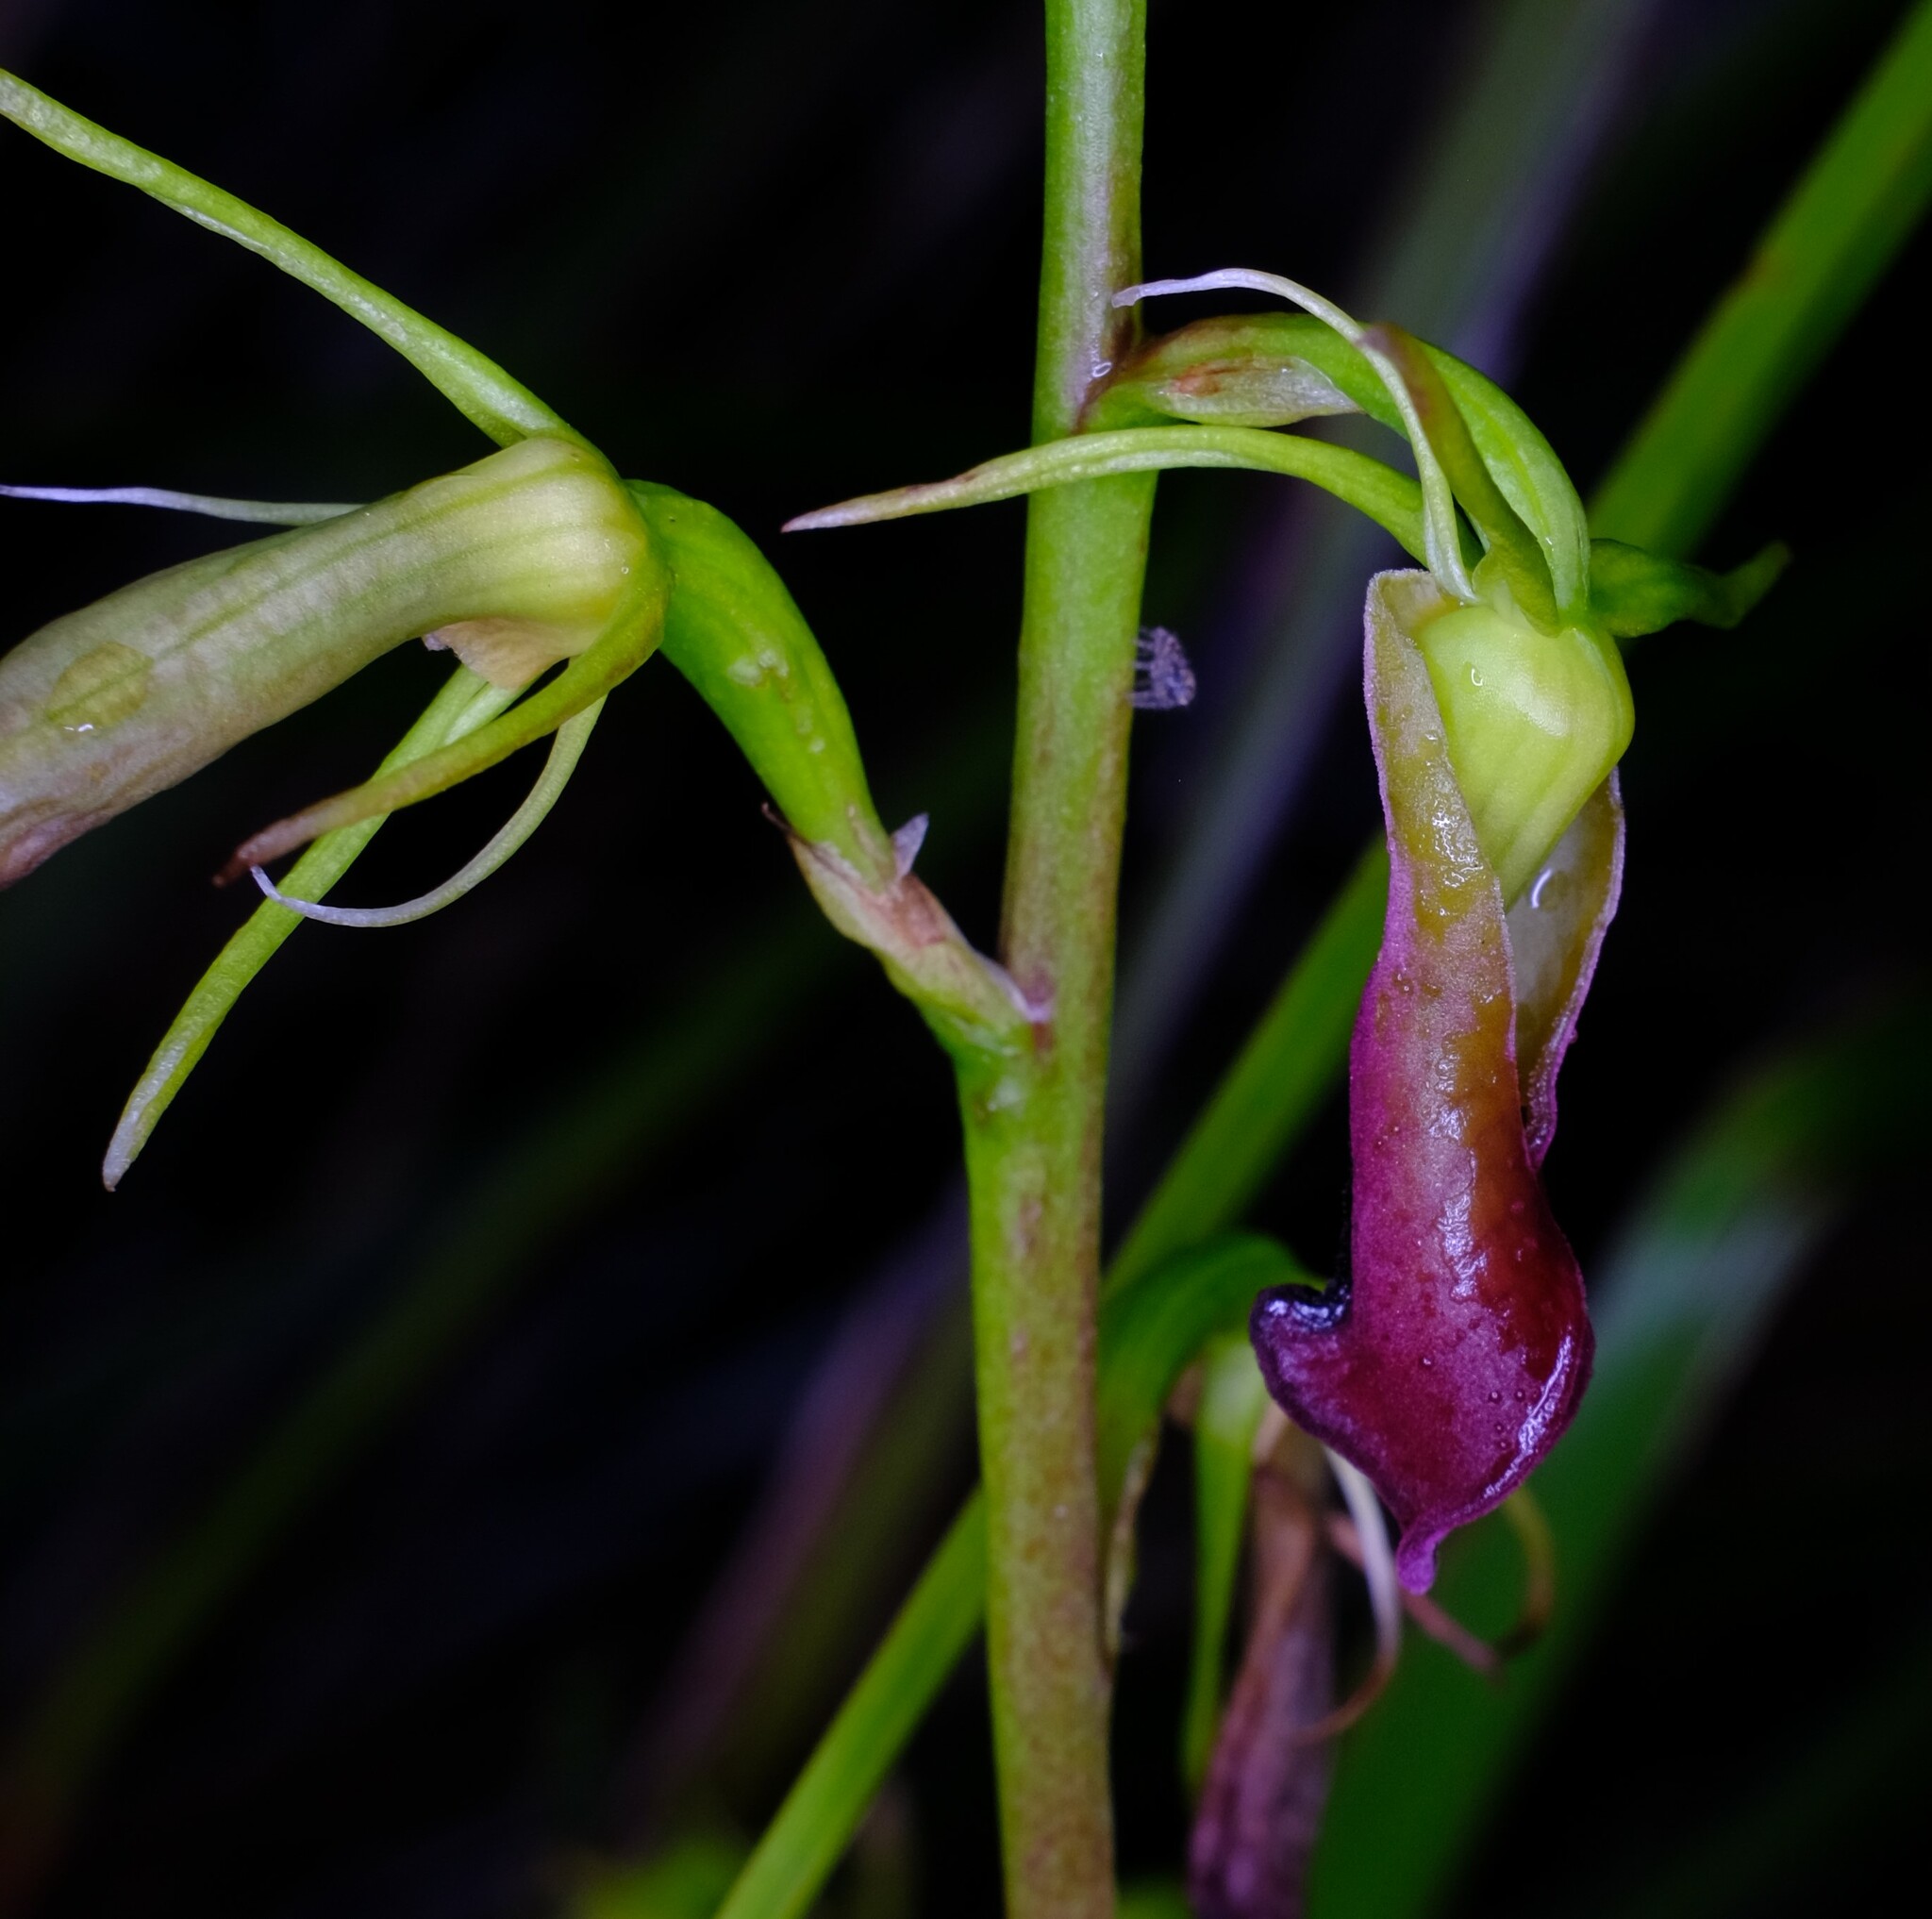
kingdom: Plantae
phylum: Tracheophyta
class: Liliopsida
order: Asparagales
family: Orchidaceae
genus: Cryptostylis
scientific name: Cryptostylis subulata
